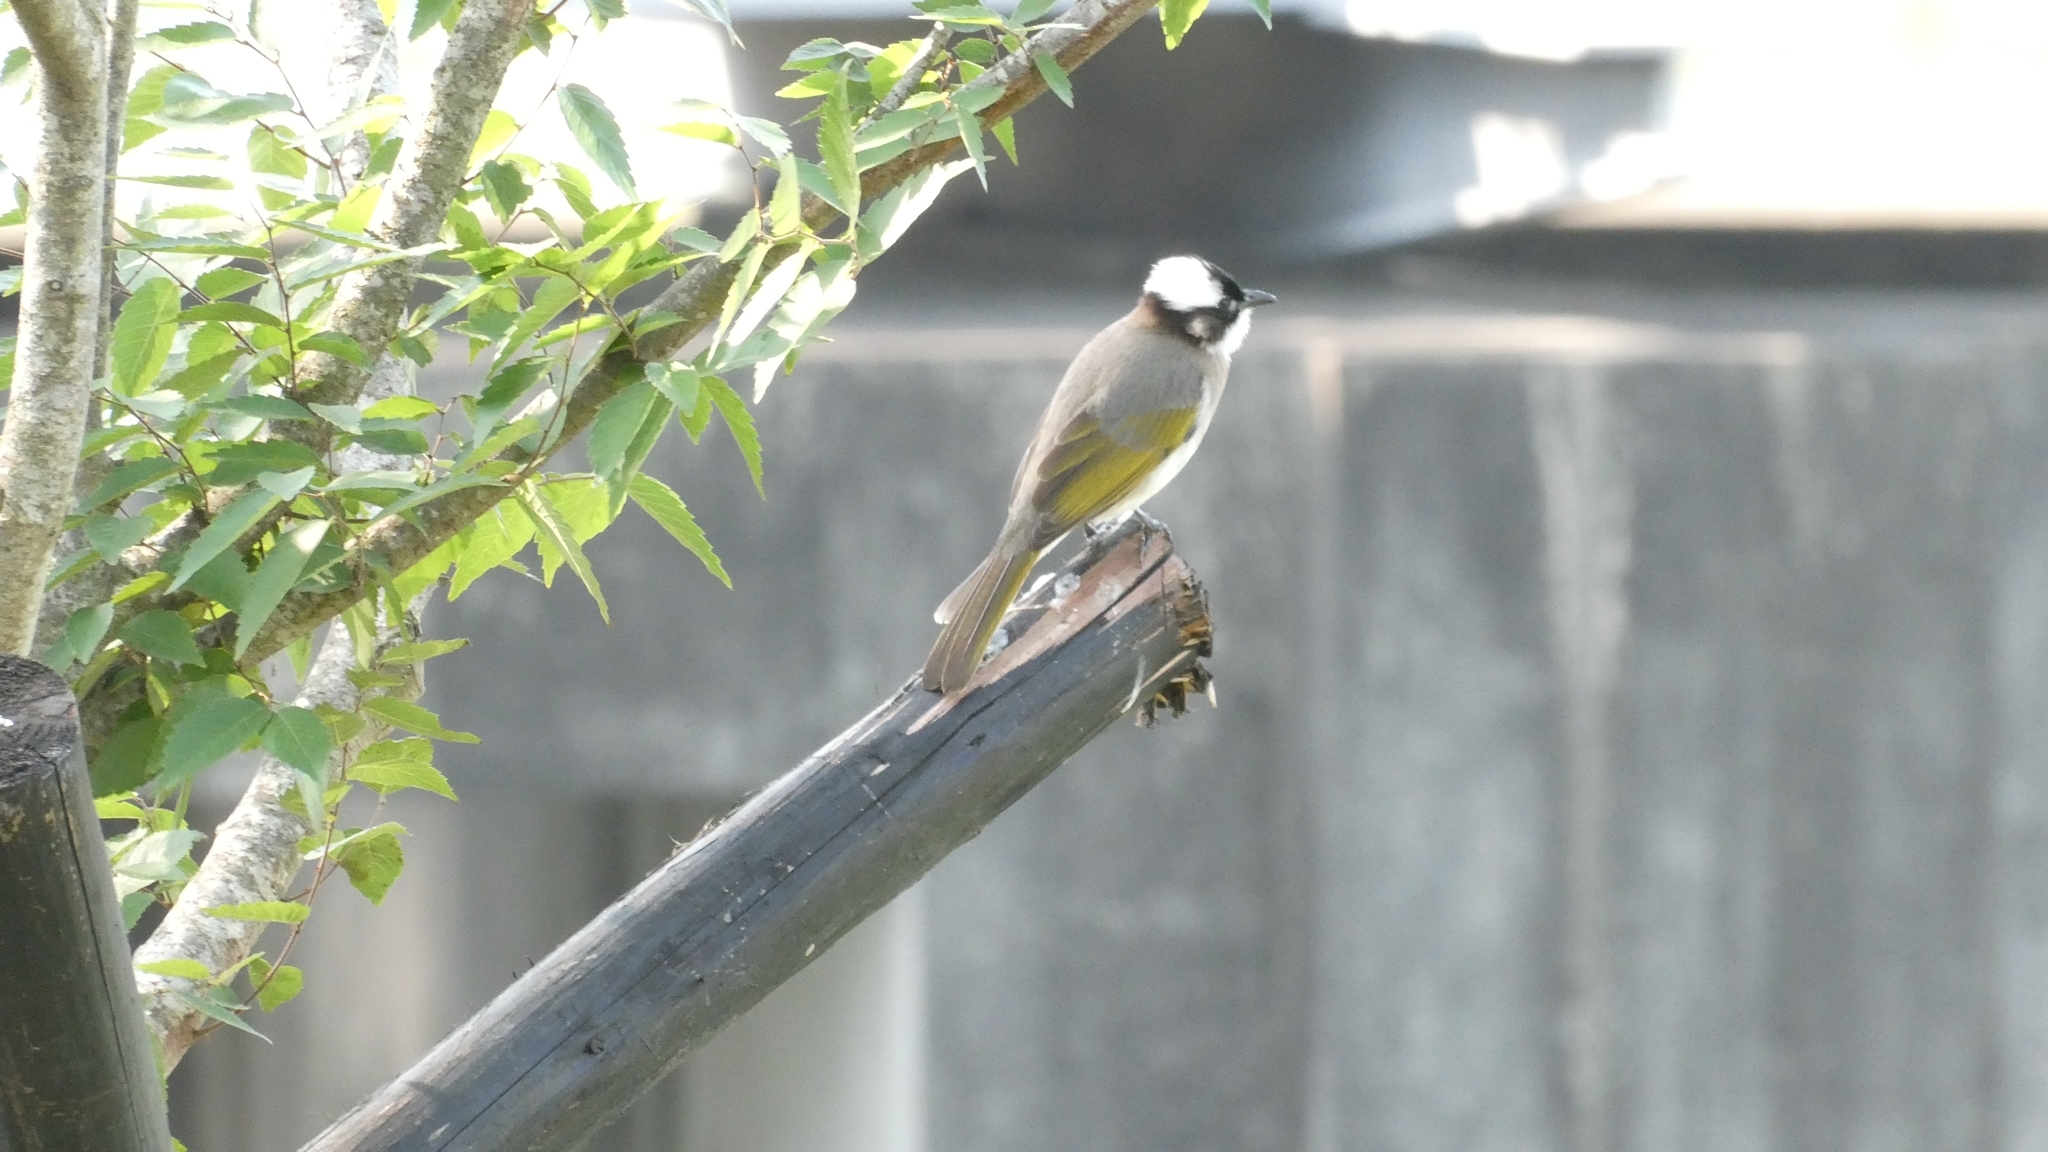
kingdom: Animalia
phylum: Chordata
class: Aves
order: Passeriformes
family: Pycnonotidae
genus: Pycnonotus
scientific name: Pycnonotus sinensis
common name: Light-vented bulbul
